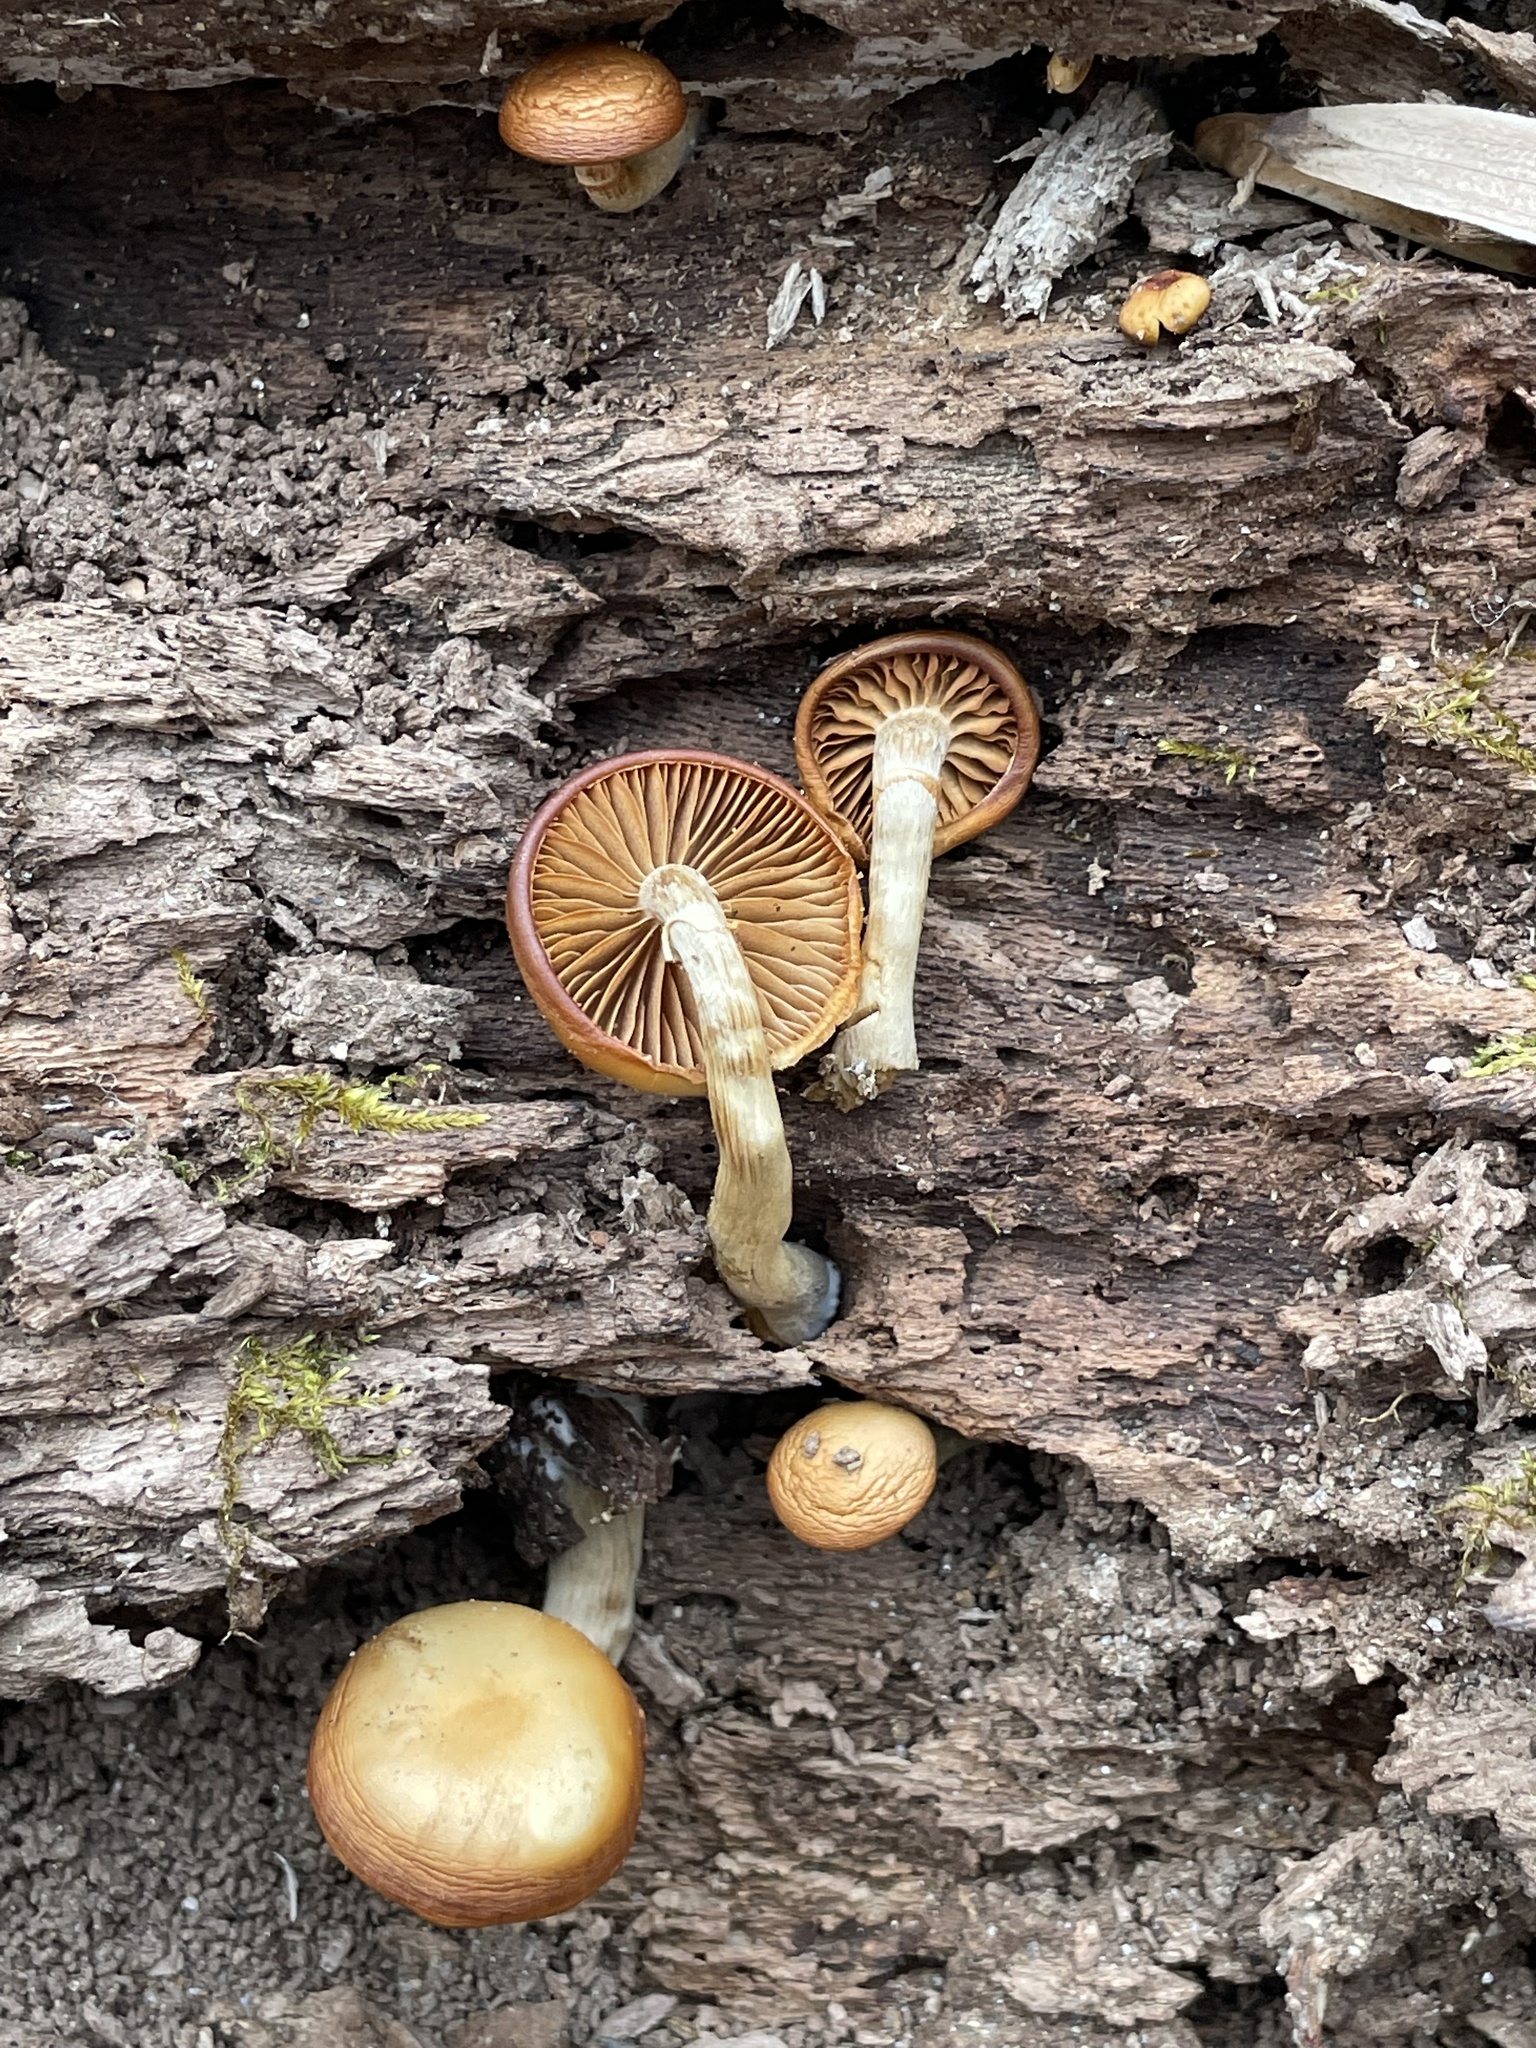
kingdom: Fungi
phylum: Basidiomycota
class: Agaricomycetes
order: Agaricales
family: Hymenogastraceae
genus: Galerina
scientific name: Galerina marginata
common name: Funeral bell
